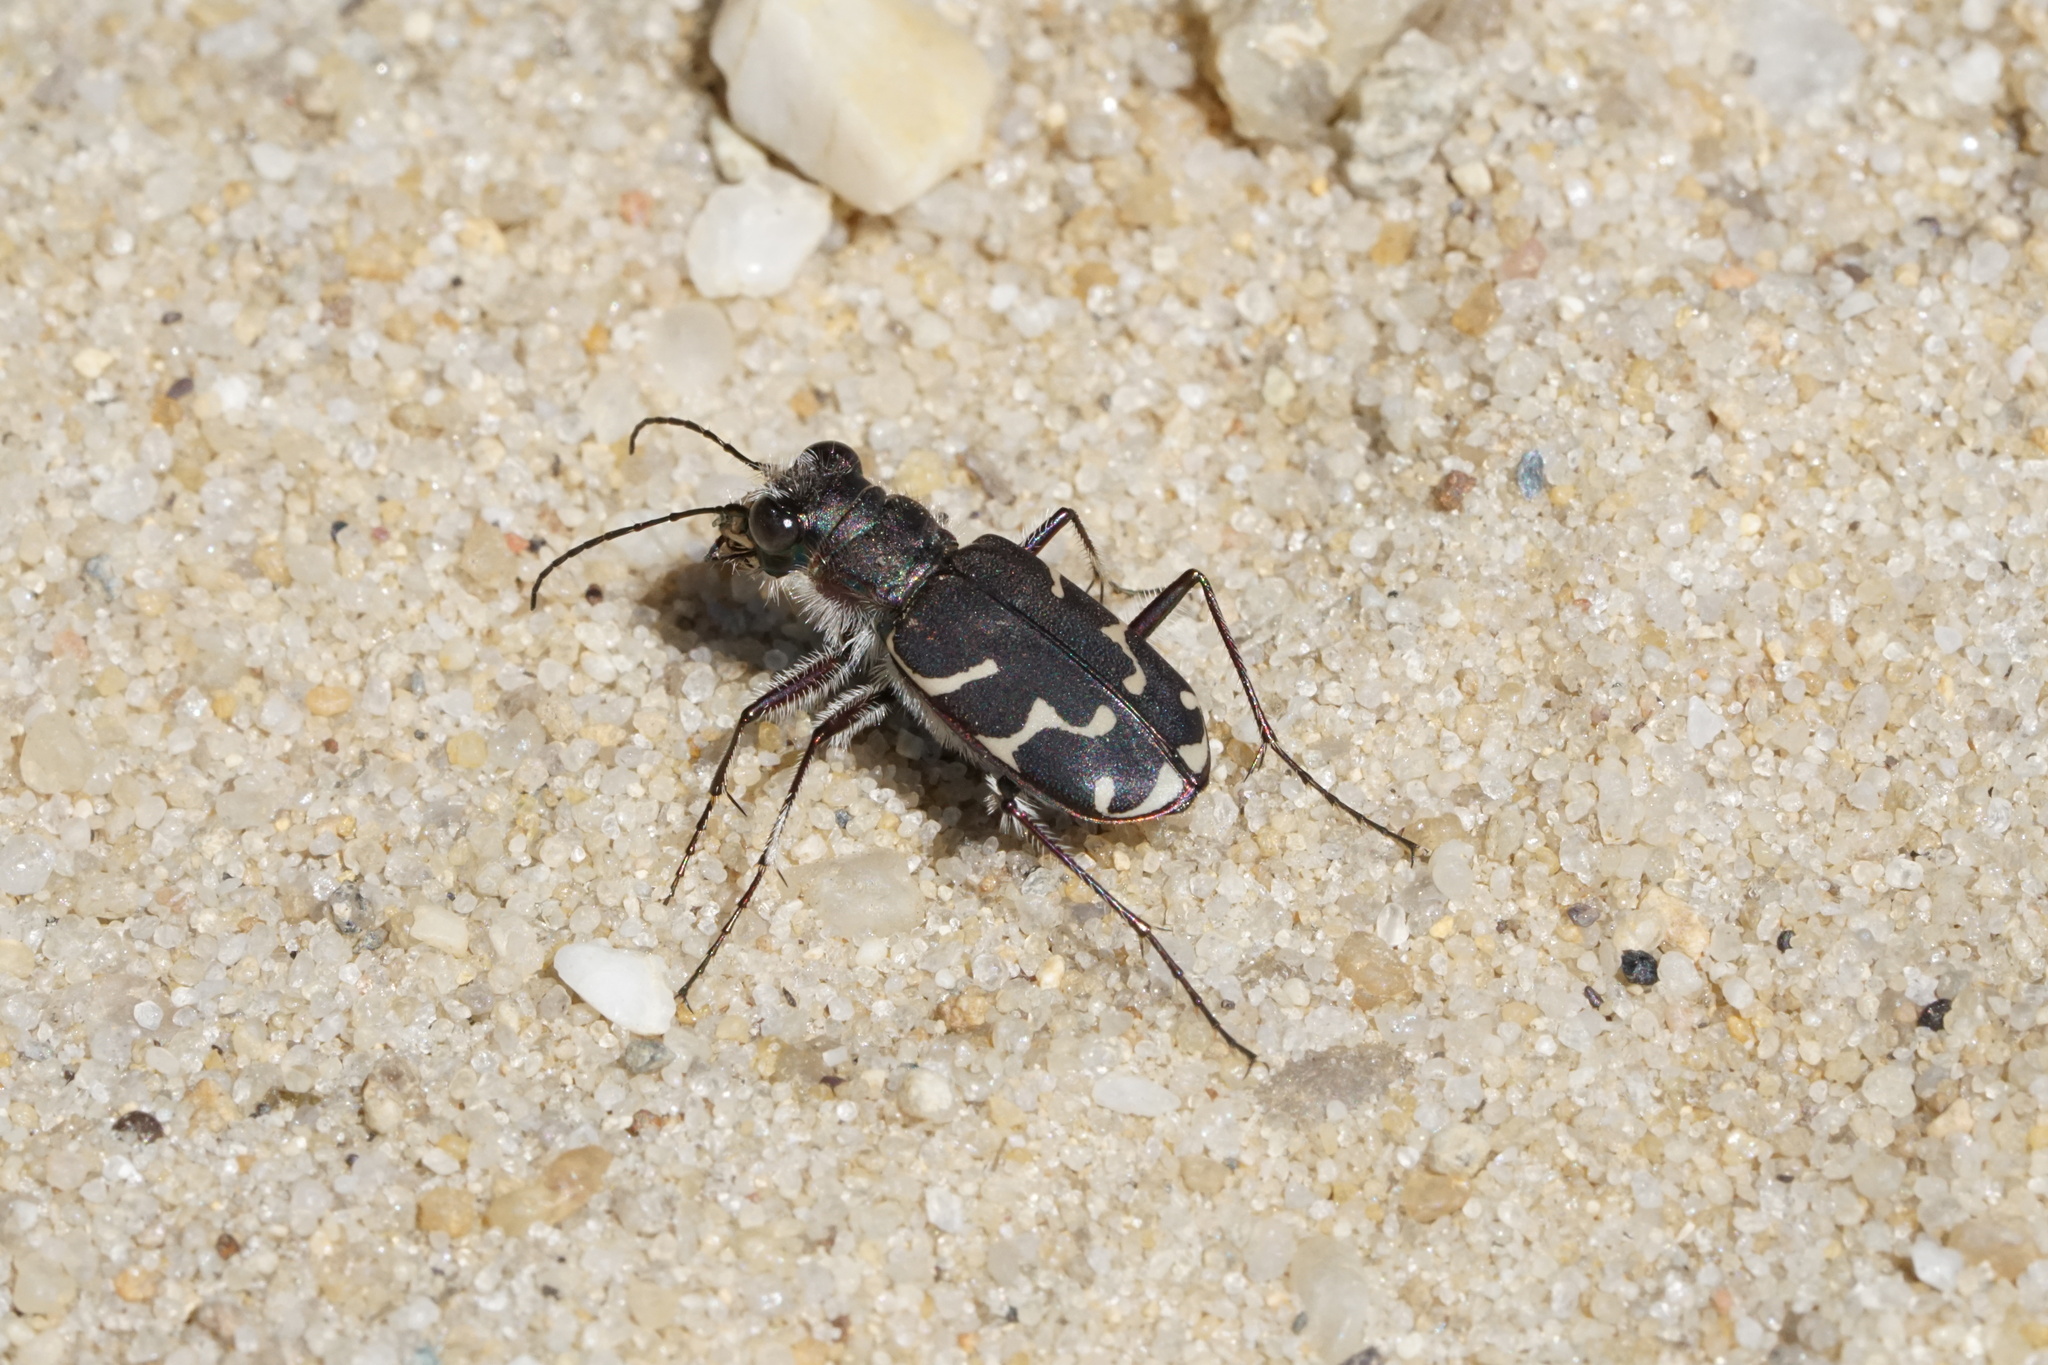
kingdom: Animalia
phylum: Arthropoda
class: Insecta
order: Coleoptera
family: Carabidae
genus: Cicindela
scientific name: Cicindela tranquebarica
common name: Oblique-lined tiger beetle
